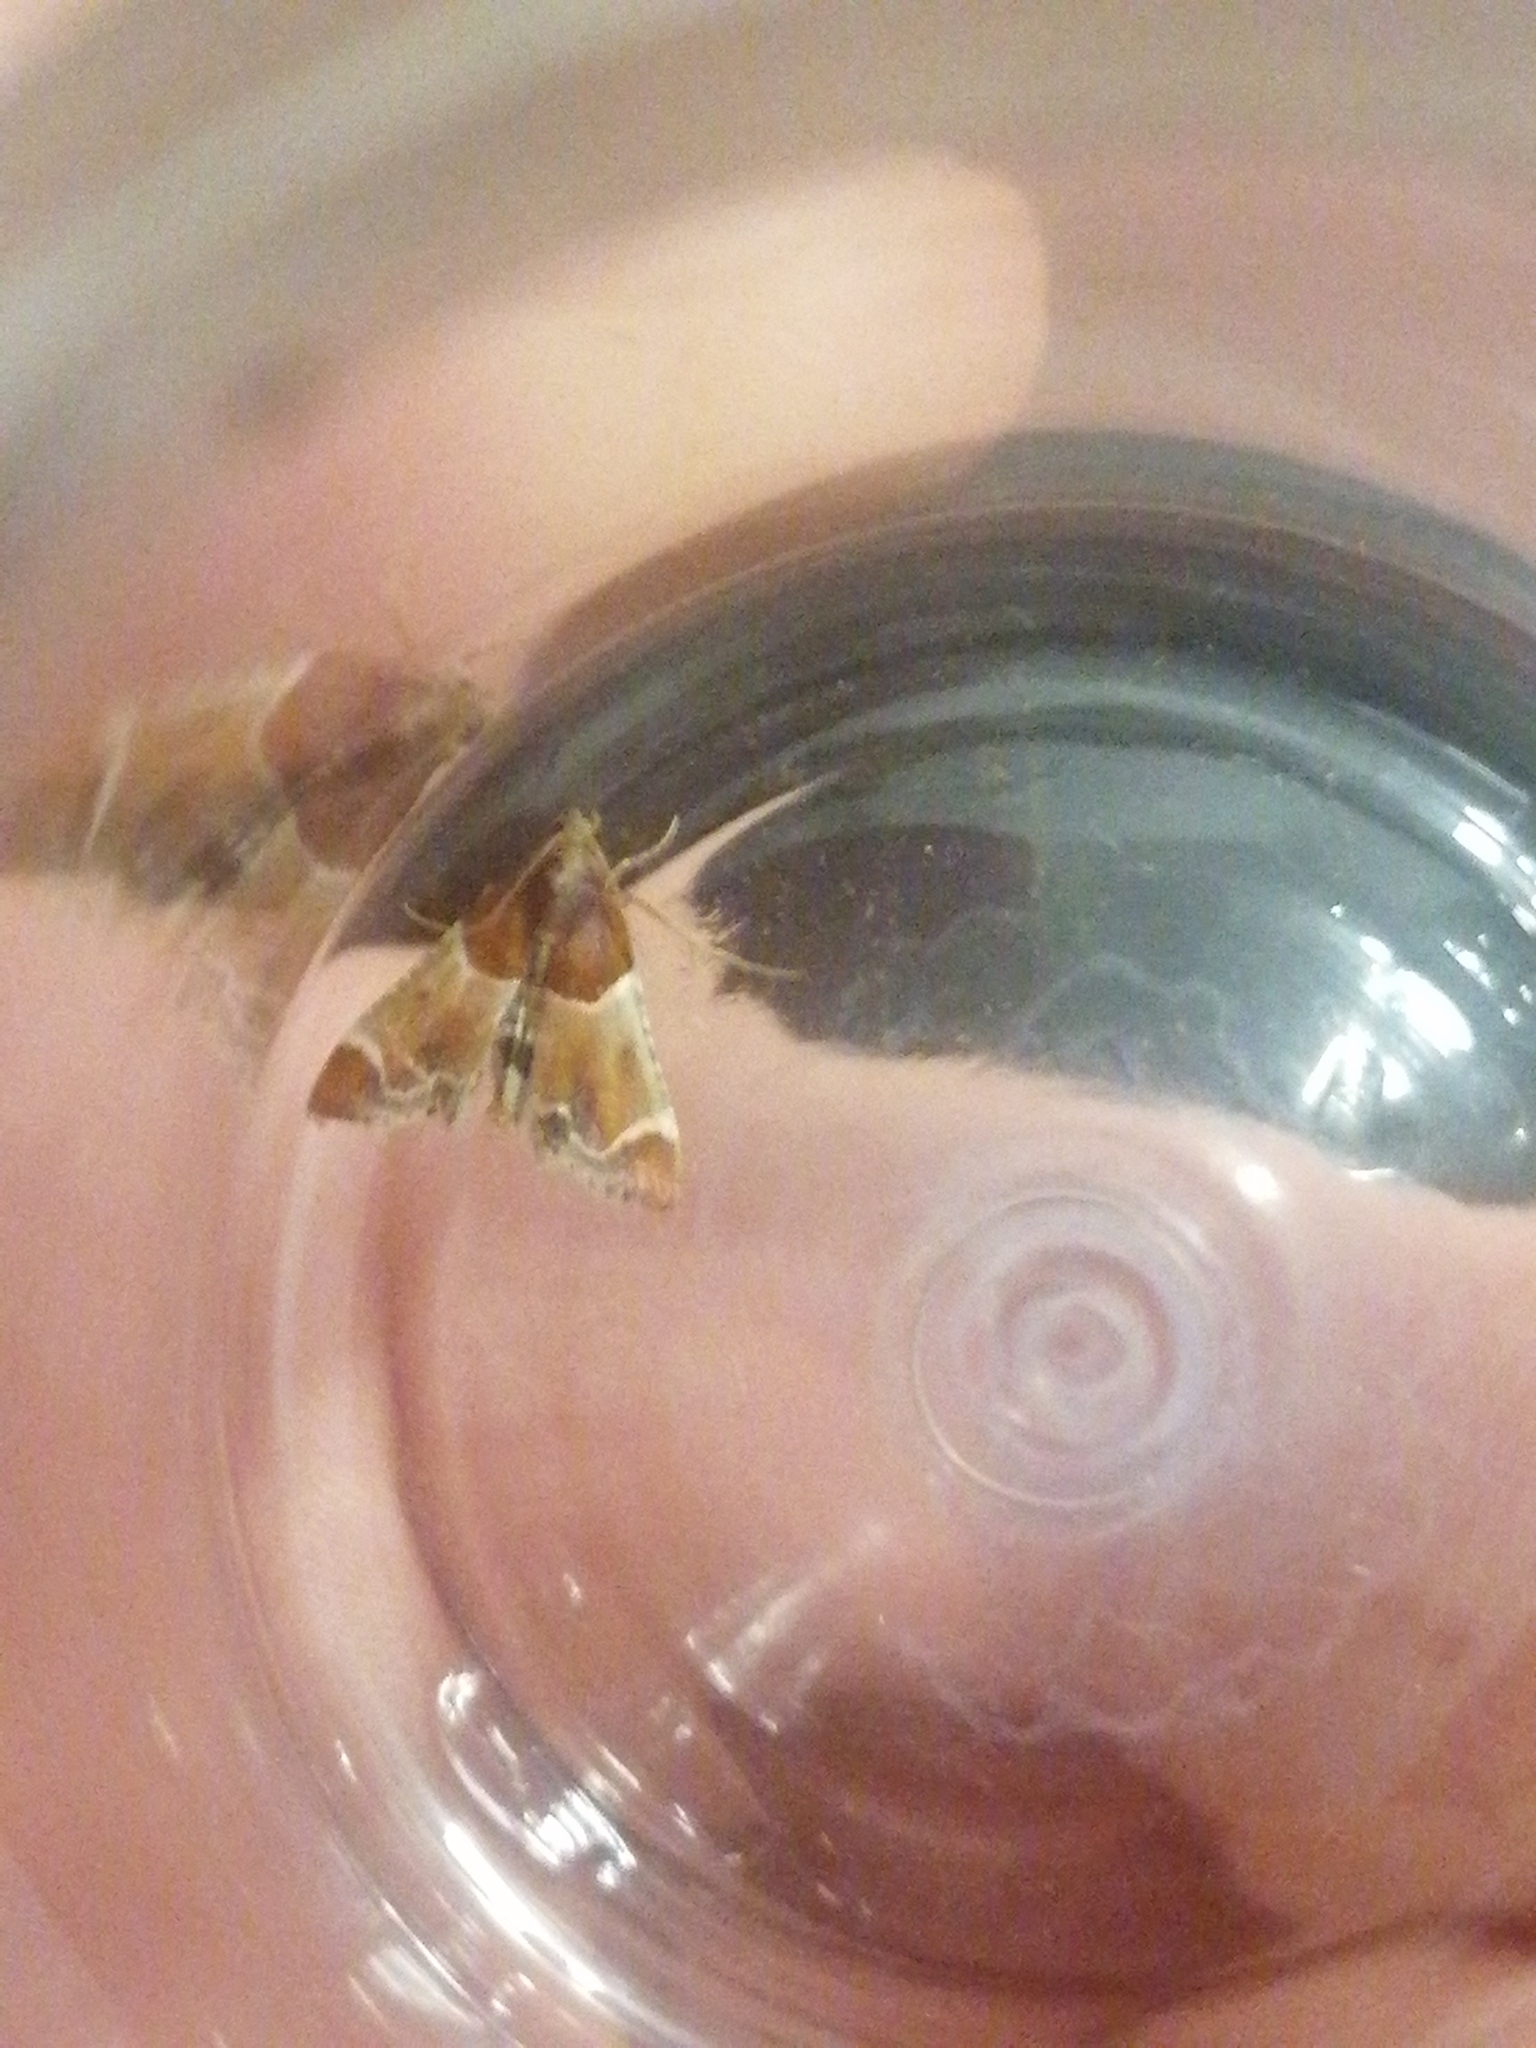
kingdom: Animalia
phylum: Arthropoda
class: Insecta
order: Lepidoptera
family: Pyralidae
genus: Pyralis
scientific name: Pyralis farinalis
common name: Meal moth
